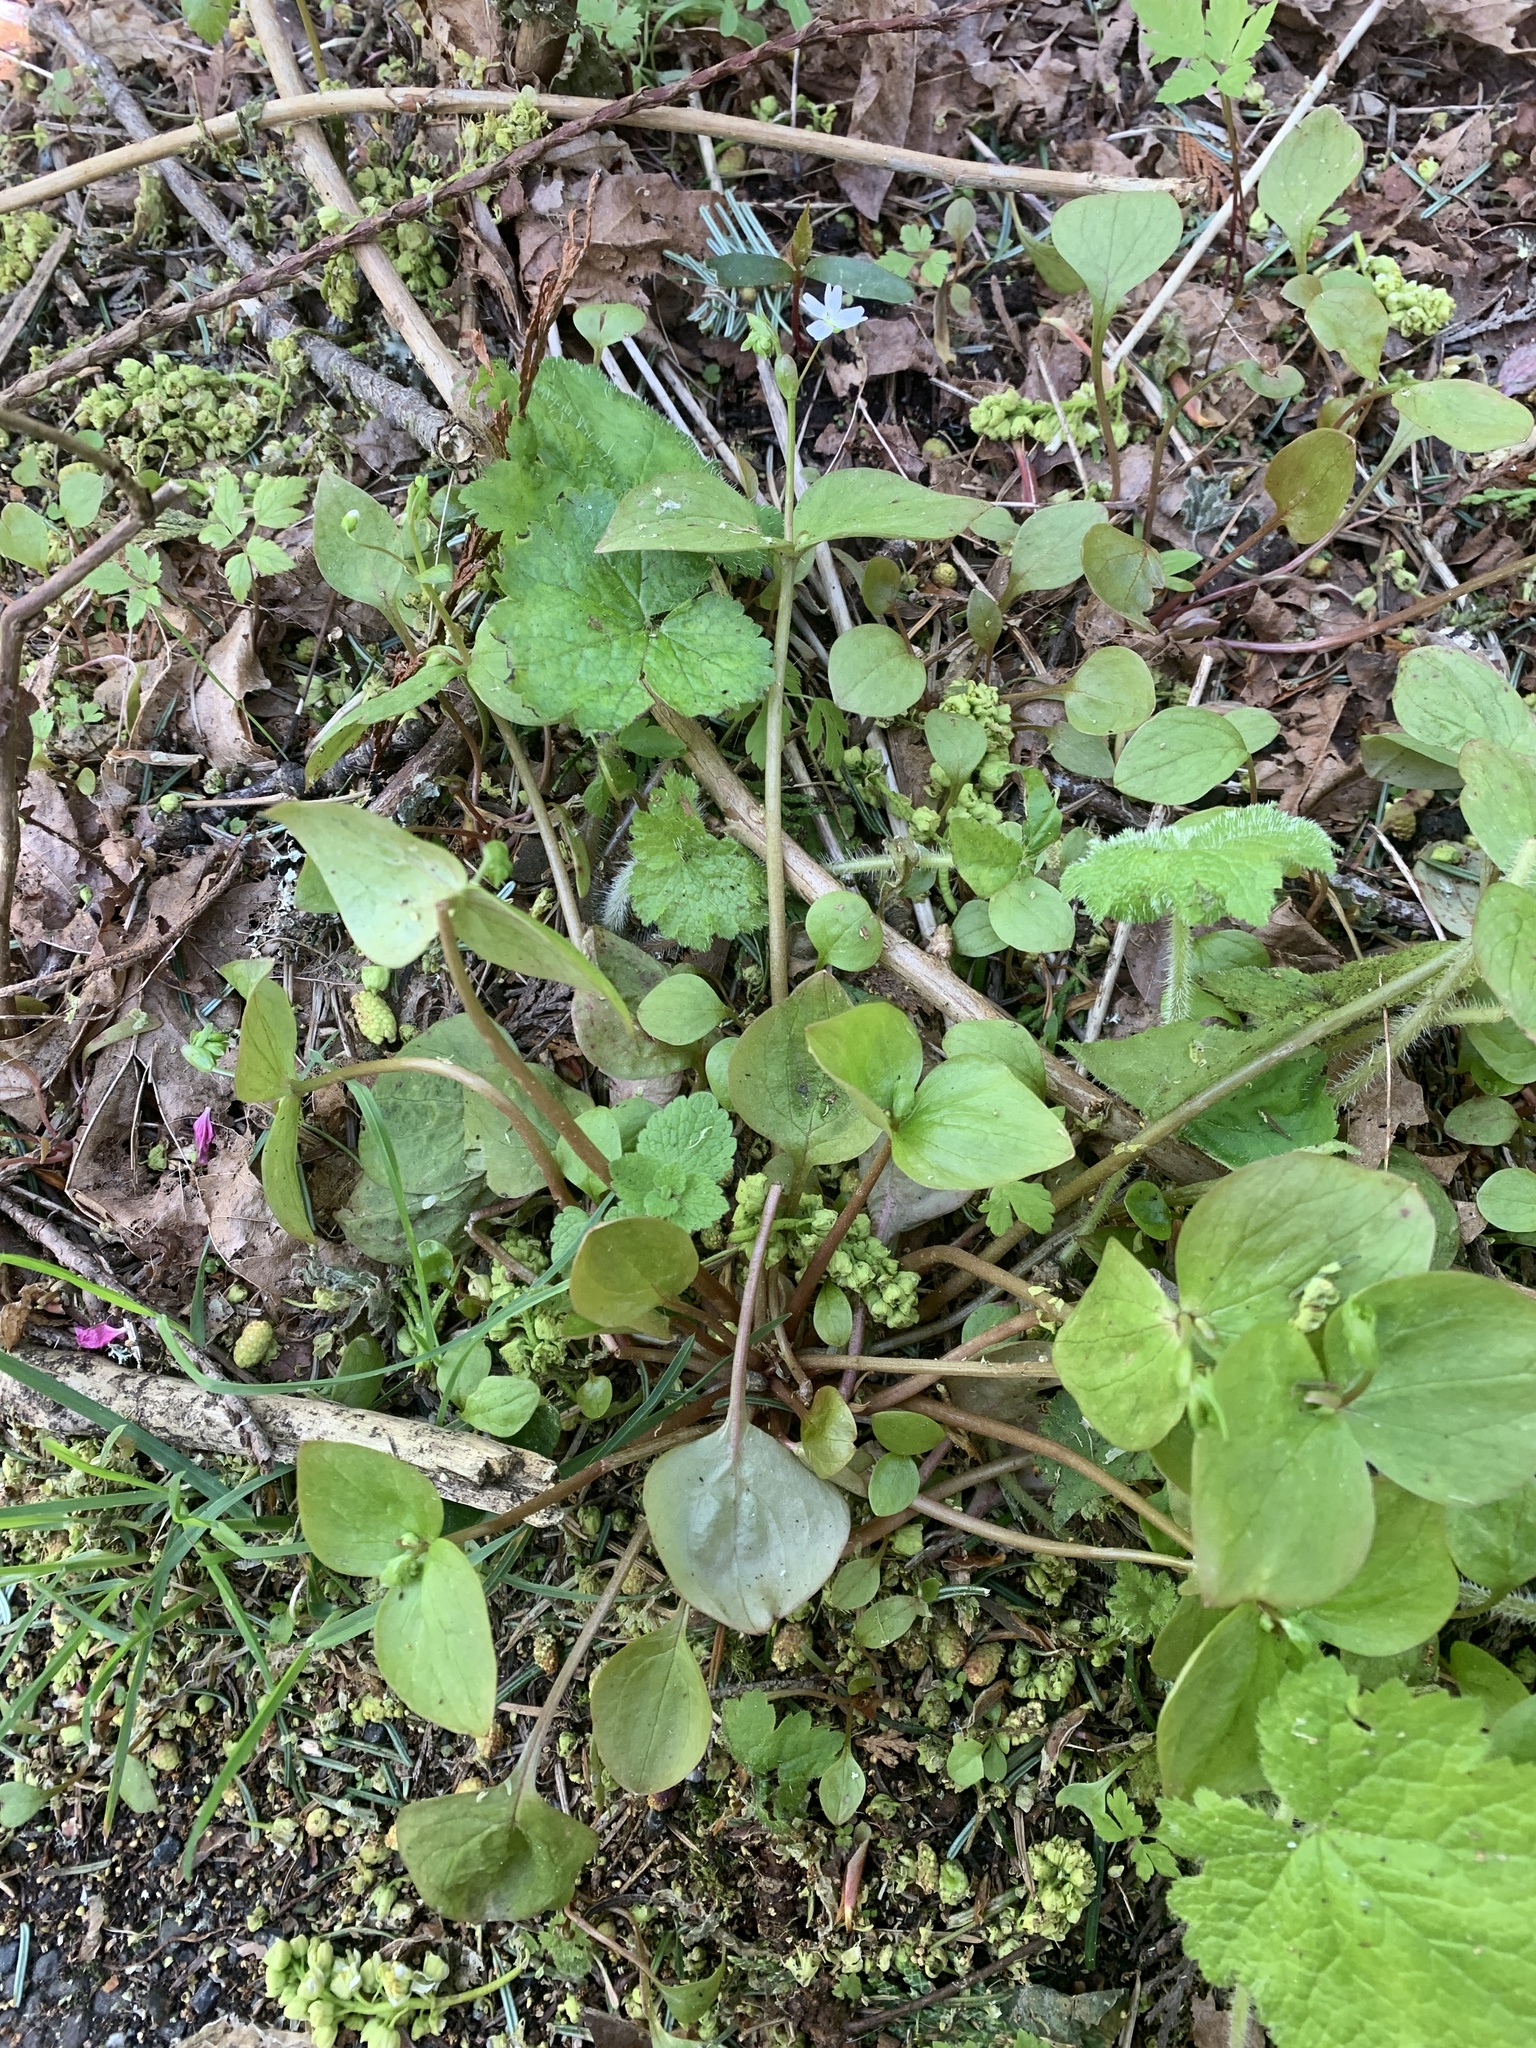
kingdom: Plantae
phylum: Tracheophyta
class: Magnoliopsida
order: Caryophyllales
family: Montiaceae
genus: Claytonia
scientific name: Claytonia sibirica
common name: Pink purslane
